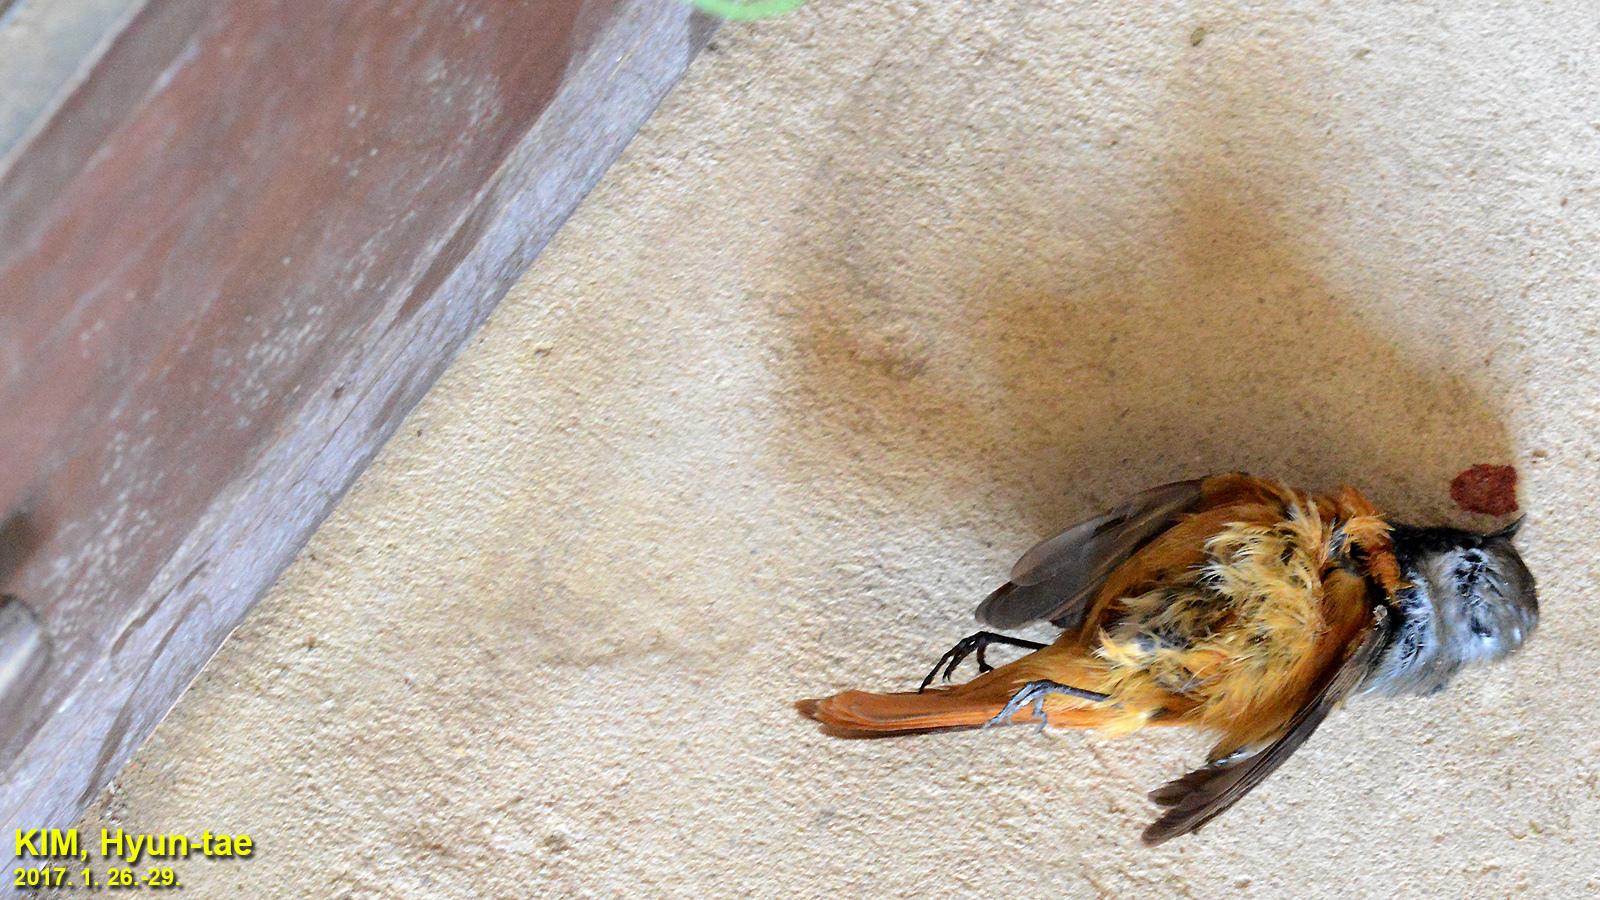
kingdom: Animalia
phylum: Chordata
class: Aves
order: Passeriformes
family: Muscicapidae
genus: Phoenicurus
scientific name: Phoenicurus auroreus
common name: Daurian redstart
